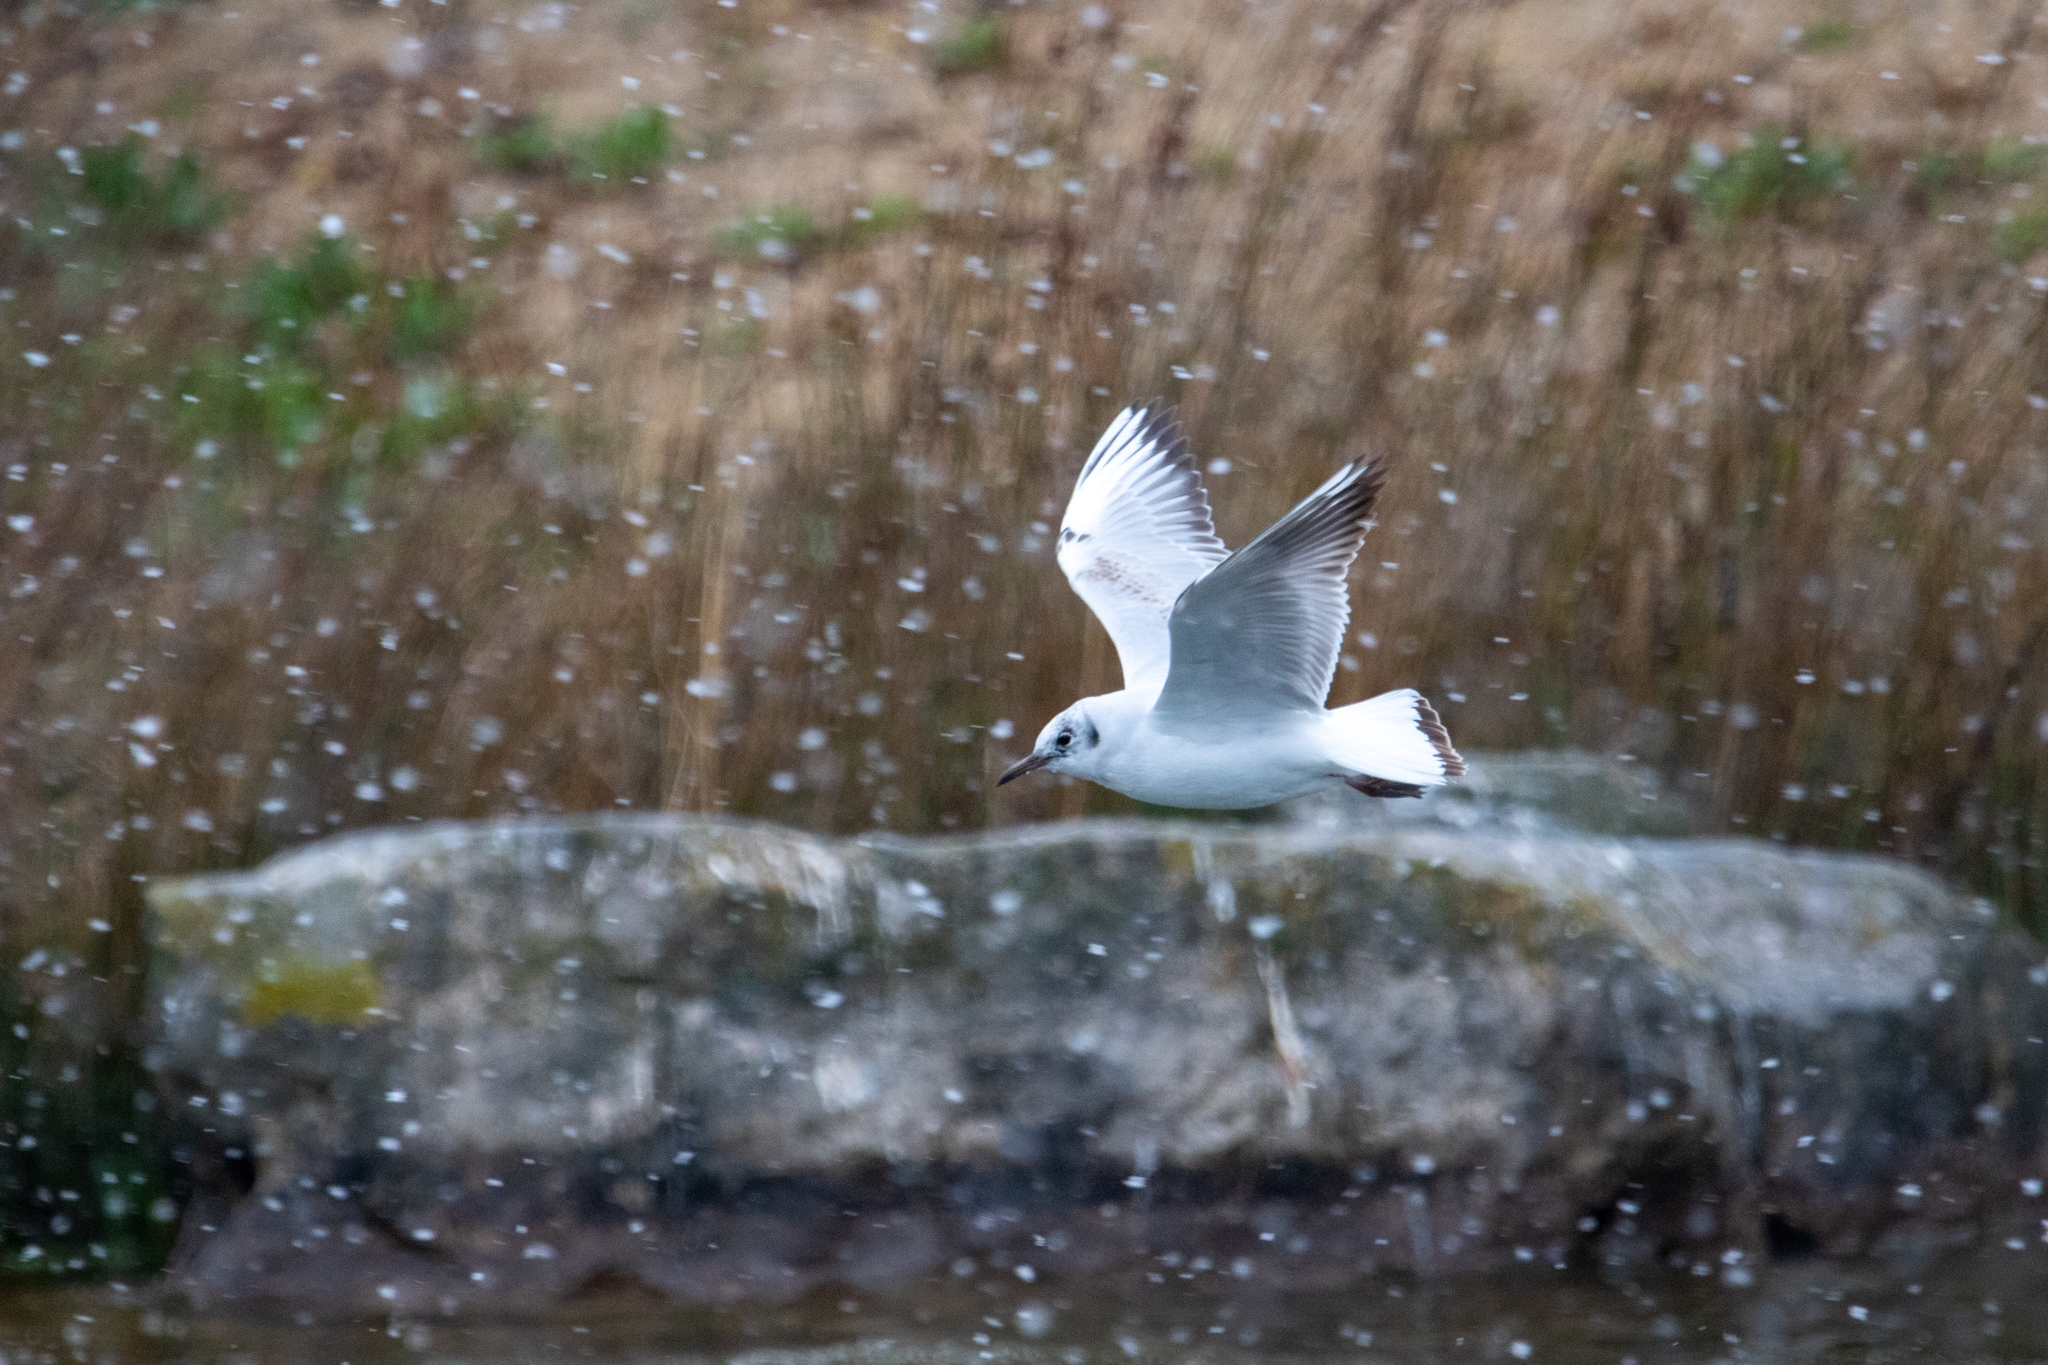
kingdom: Animalia
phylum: Chordata
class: Aves
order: Charadriiformes
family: Laridae
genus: Chroicocephalus
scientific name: Chroicocephalus ridibundus
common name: Black-headed gull
